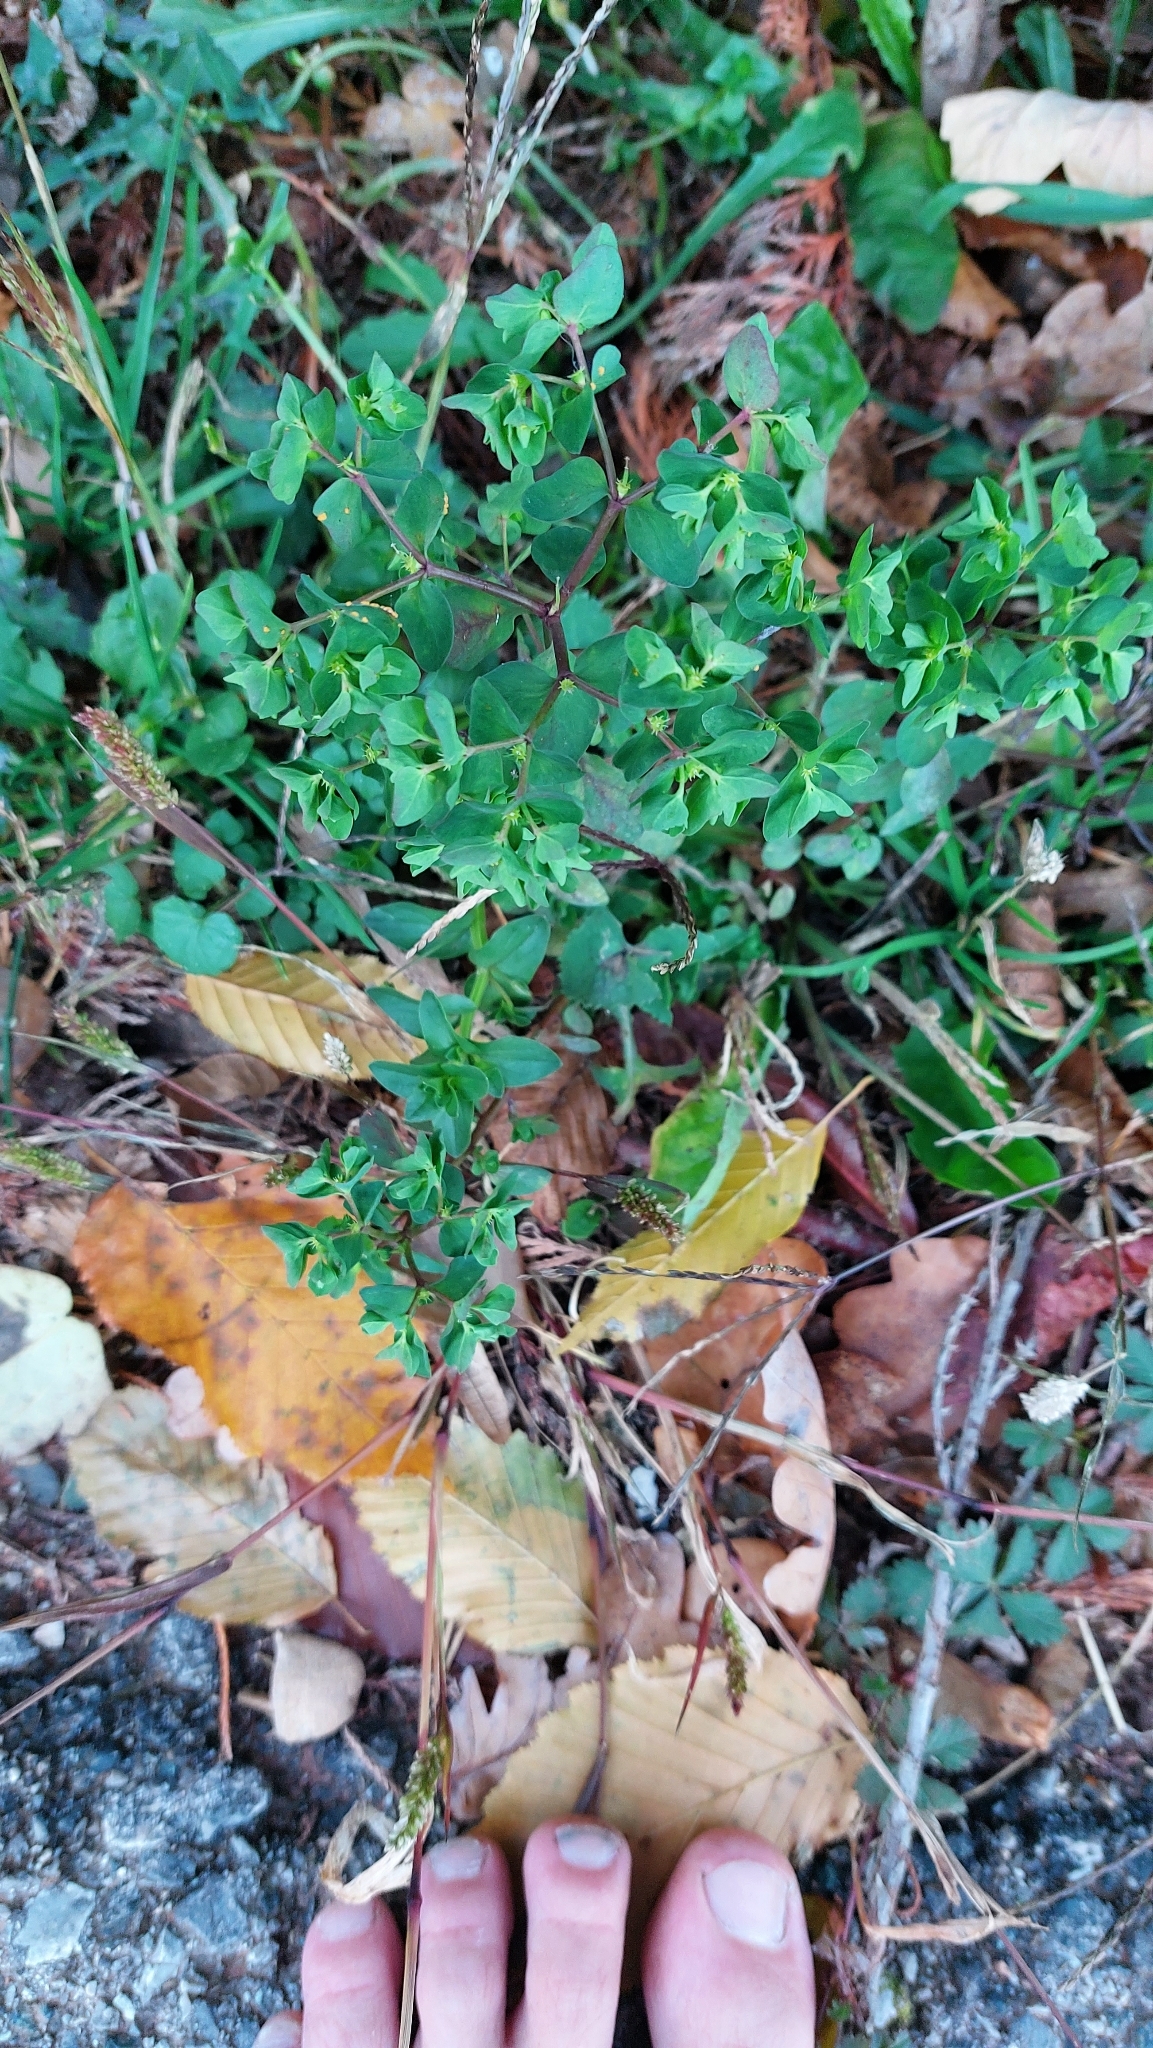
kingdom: Plantae
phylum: Tracheophyta
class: Magnoliopsida
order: Malpighiales
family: Euphorbiaceae
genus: Euphorbia
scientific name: Euphorbia peplus
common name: Petty spurge
